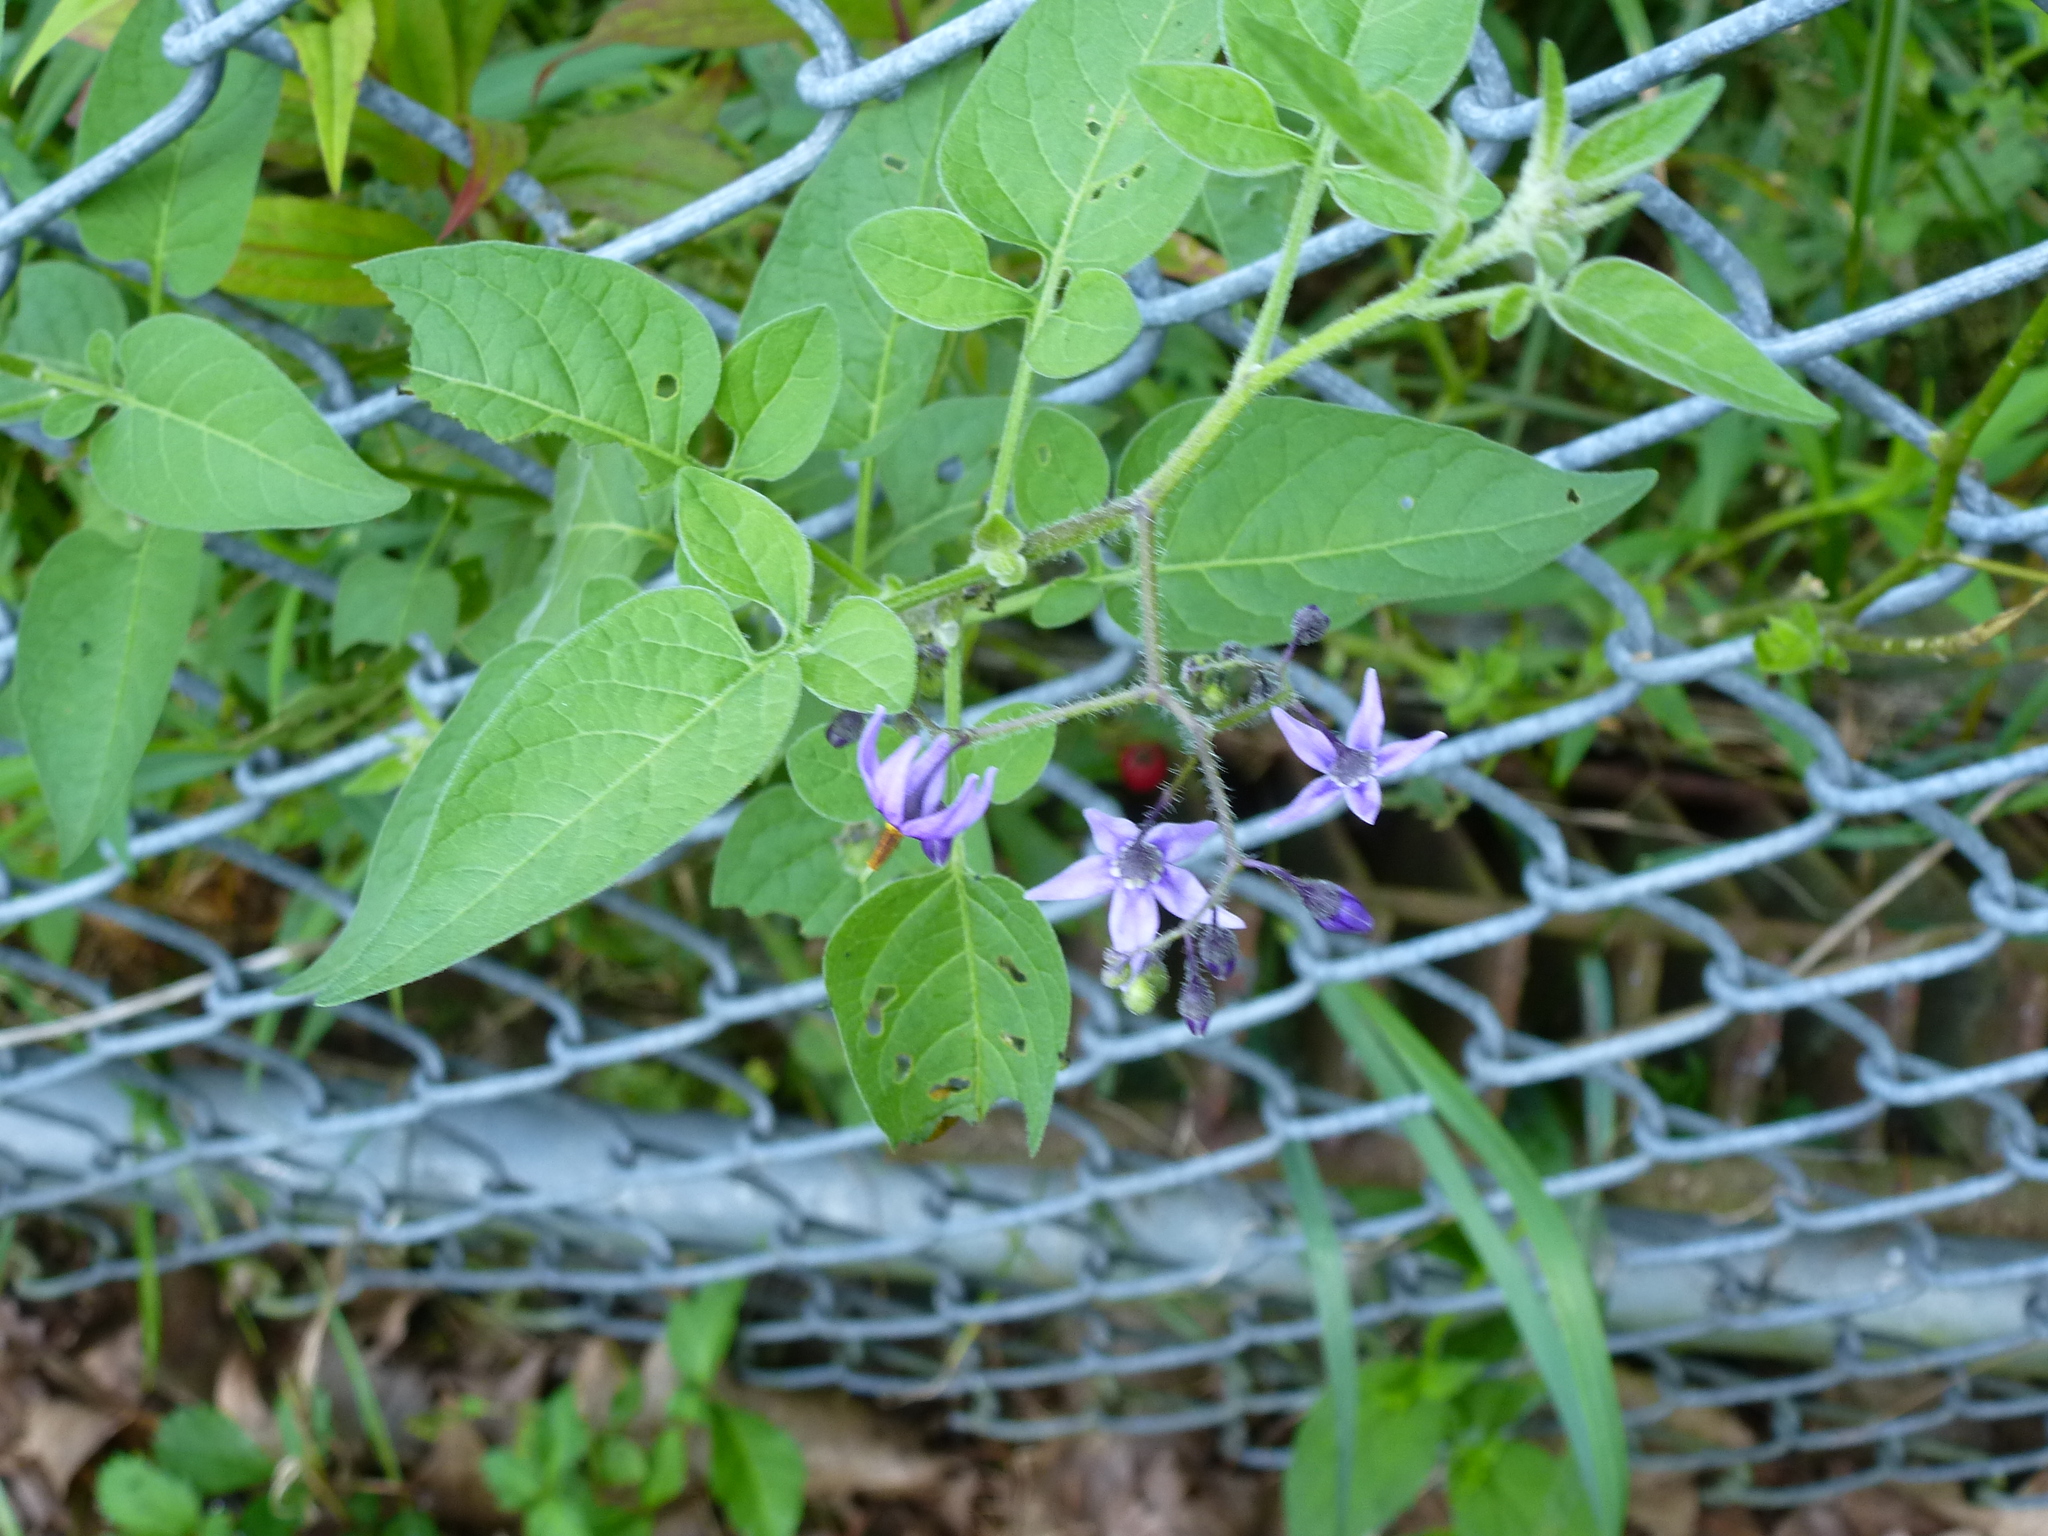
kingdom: Plantae
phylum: Tracheophyta
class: Magnoliopsida
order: Solanales
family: Solanaceae
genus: Solanum
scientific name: Solanum dulcamara
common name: Climbing nightshade
